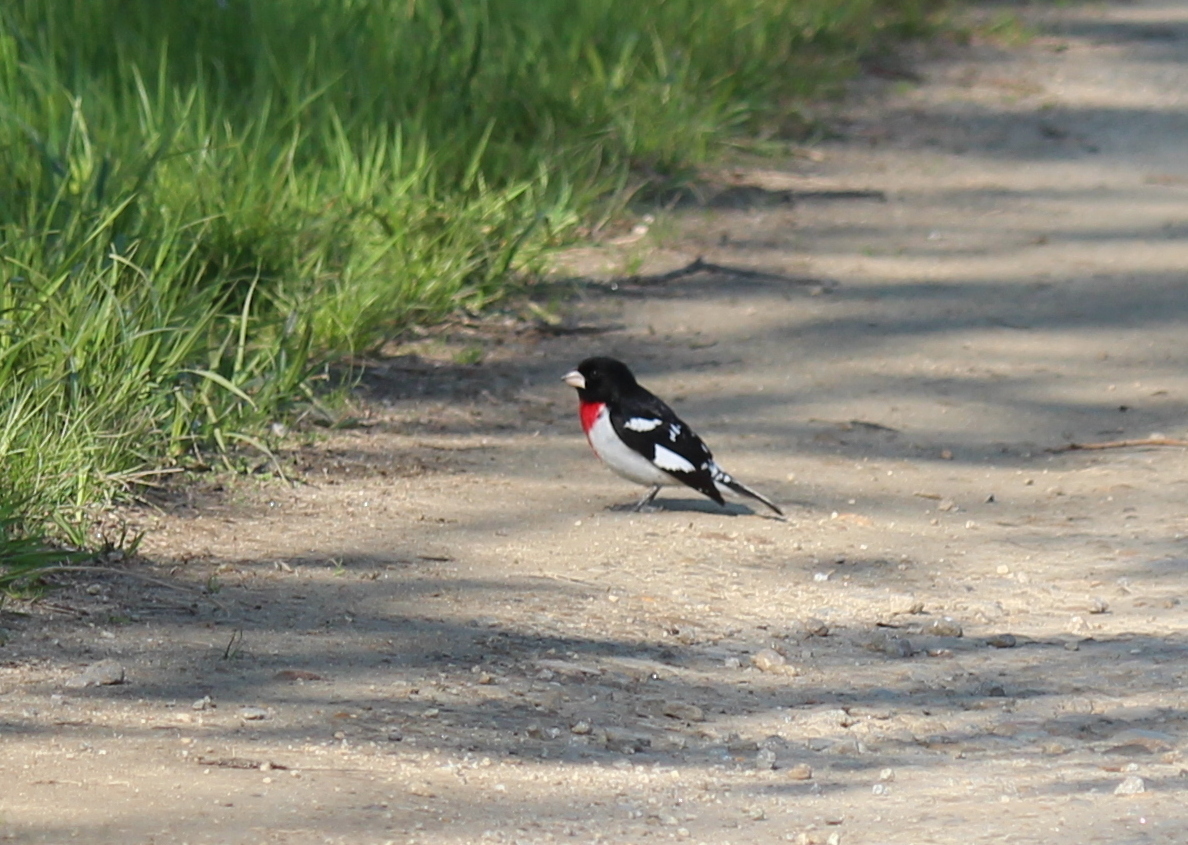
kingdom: Animalia
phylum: Chordata
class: Aves
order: Passeriformes
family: Cardinalidae
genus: Pheucticus
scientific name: Pheucticus ludovicianus
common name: Rose-breasted grosbeak
